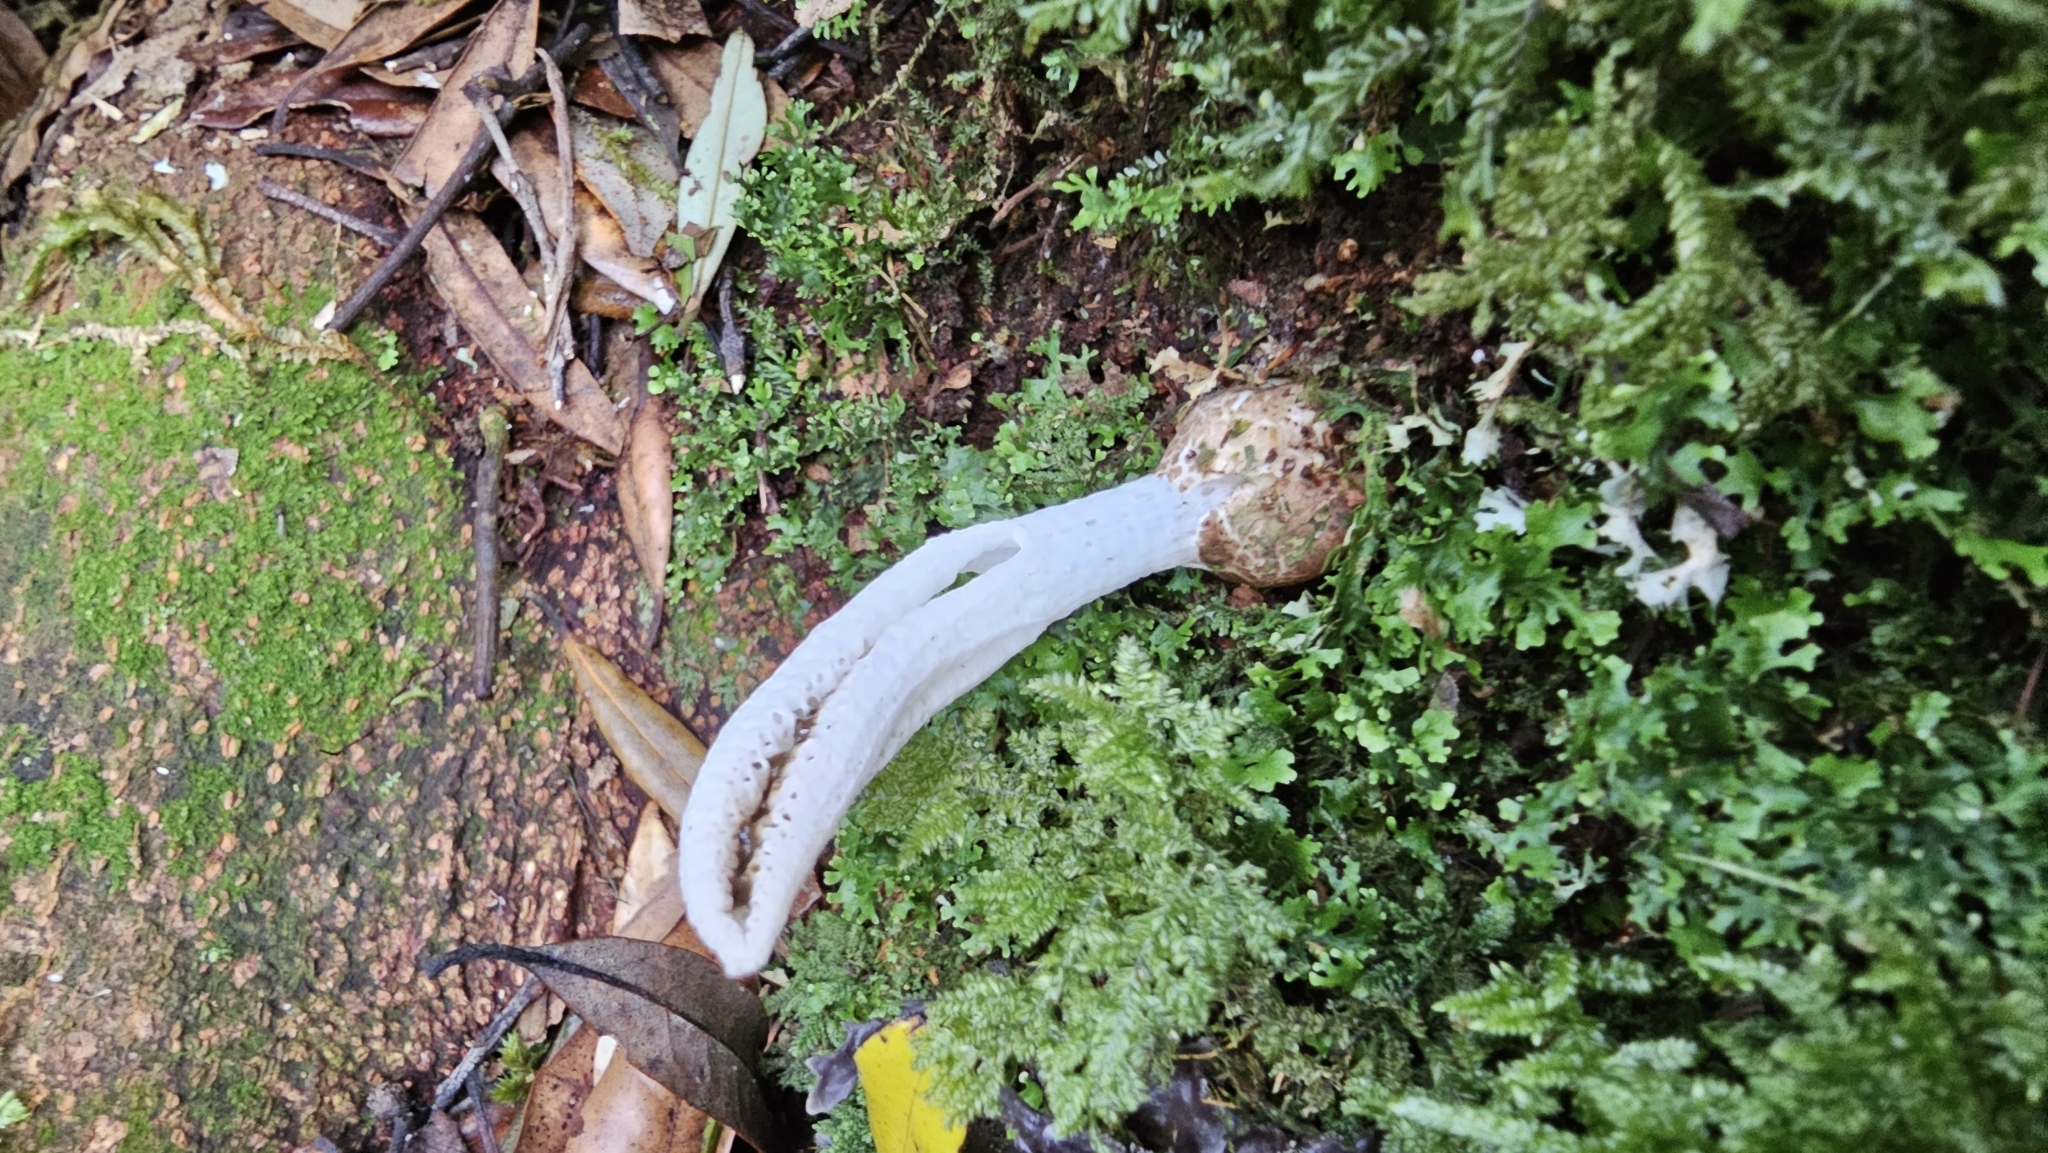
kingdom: Fungi
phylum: Basidiomycota
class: Agaricomycetes
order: Phallales
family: Phallaceae
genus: Pseudocolus
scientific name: Pseudocolus garciae
